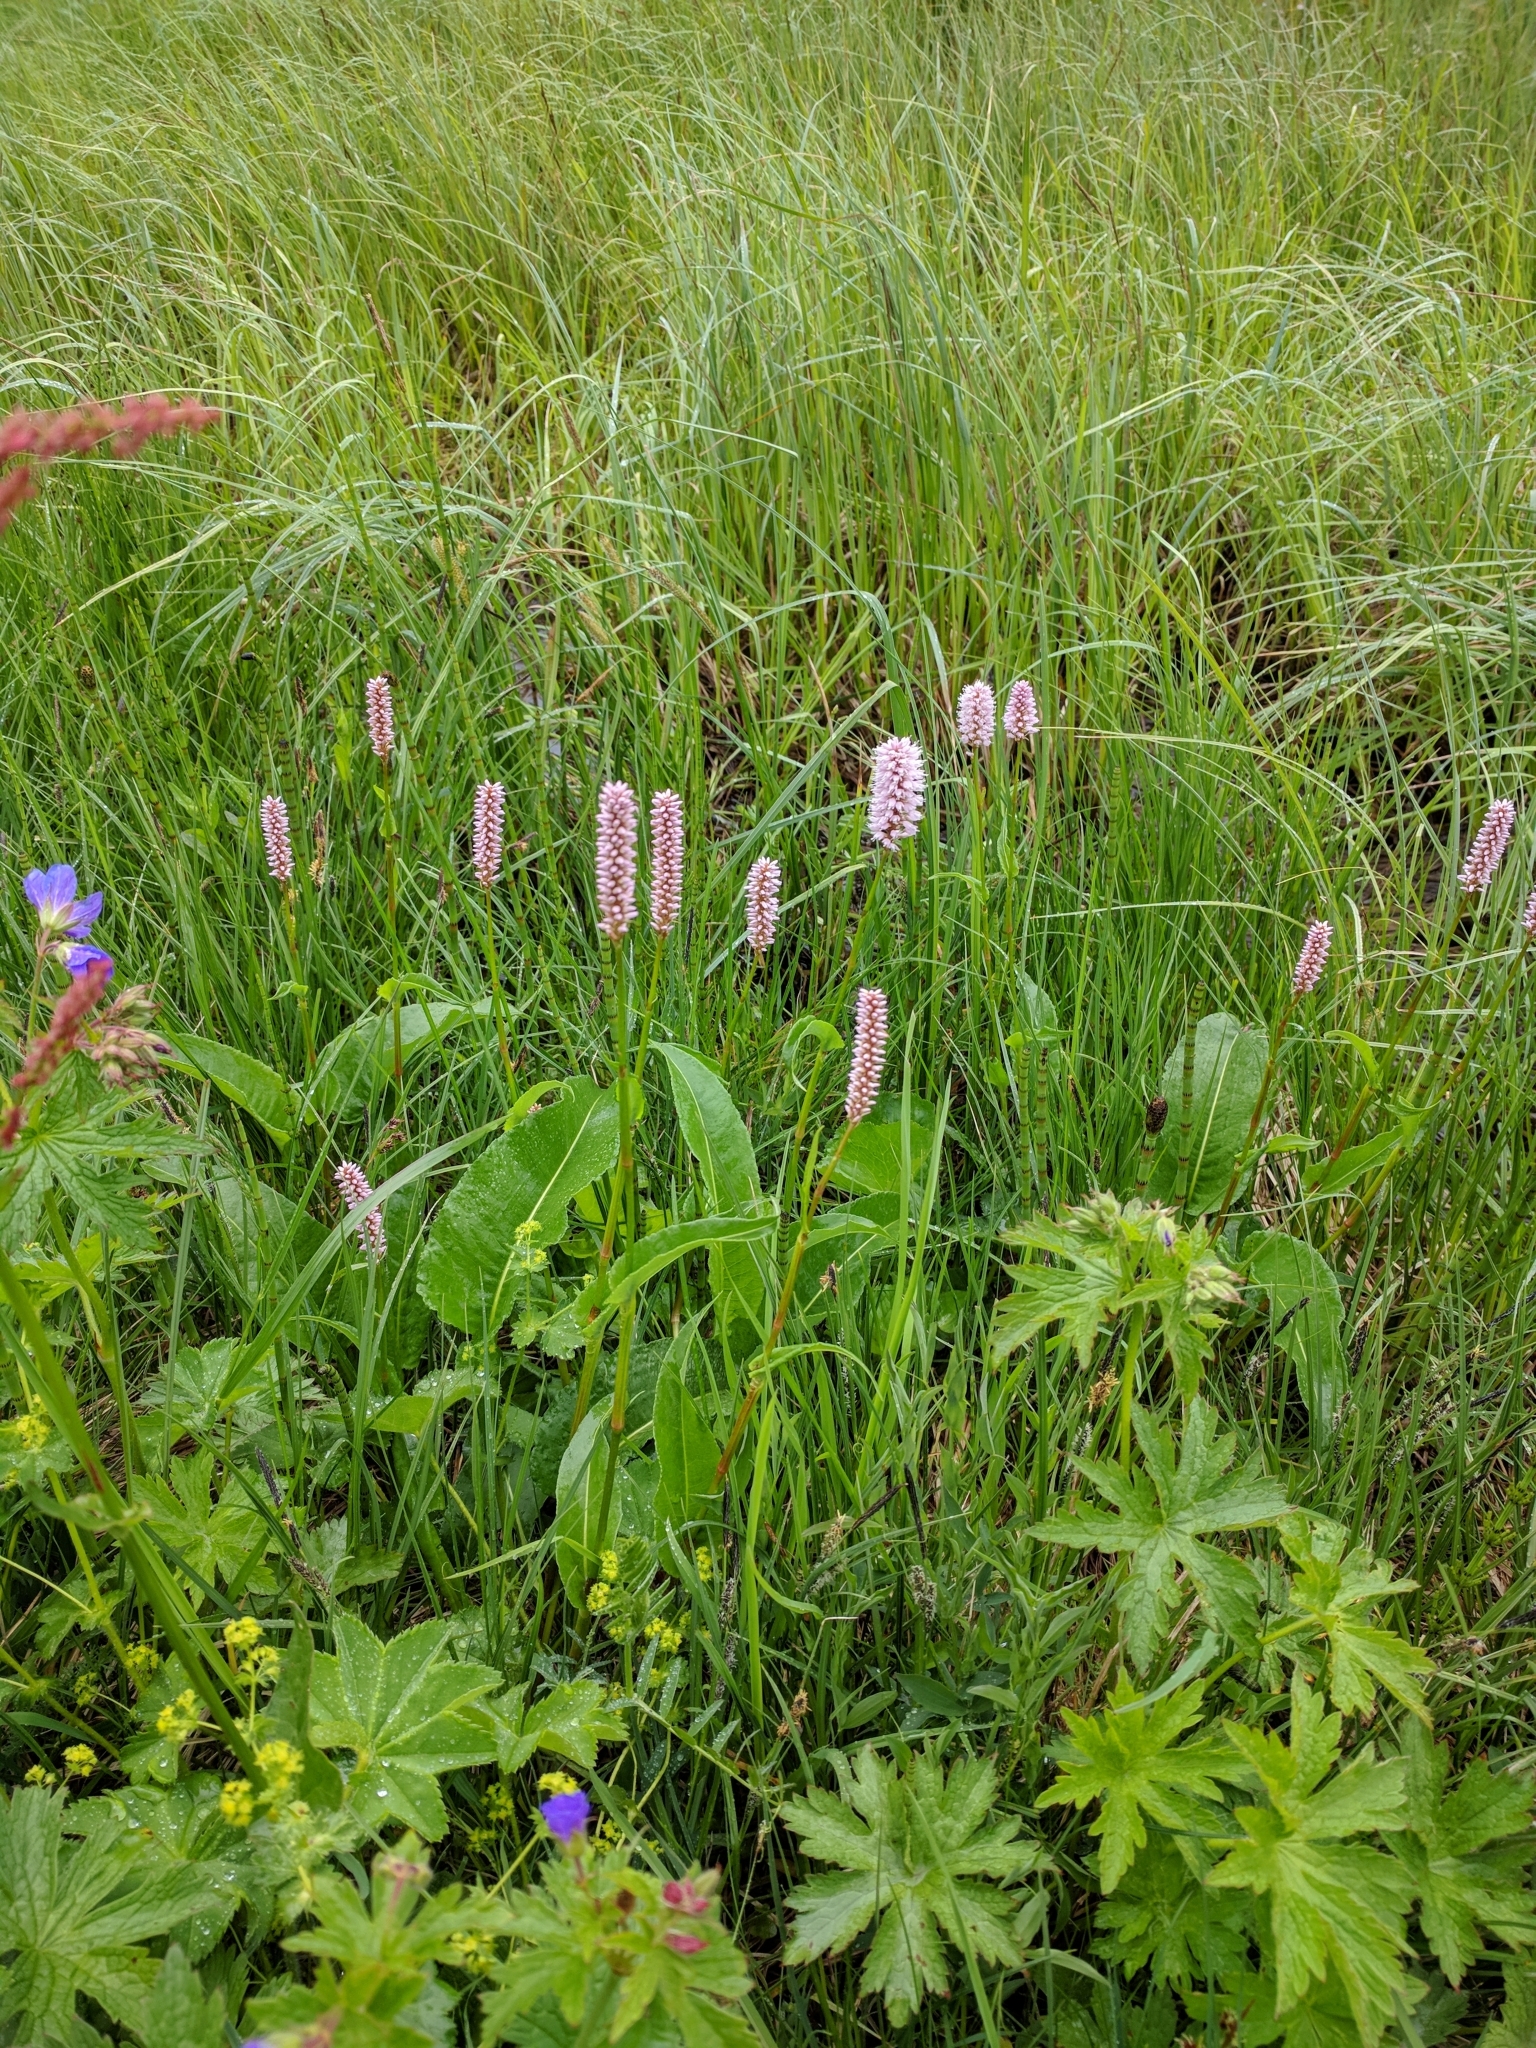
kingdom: Plantae
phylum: Tracheophyta
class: Magnoliopsida
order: Caryophyllales
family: Polygonaceae
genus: Bistorta
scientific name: Bistorta officinalis
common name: Common bistort
